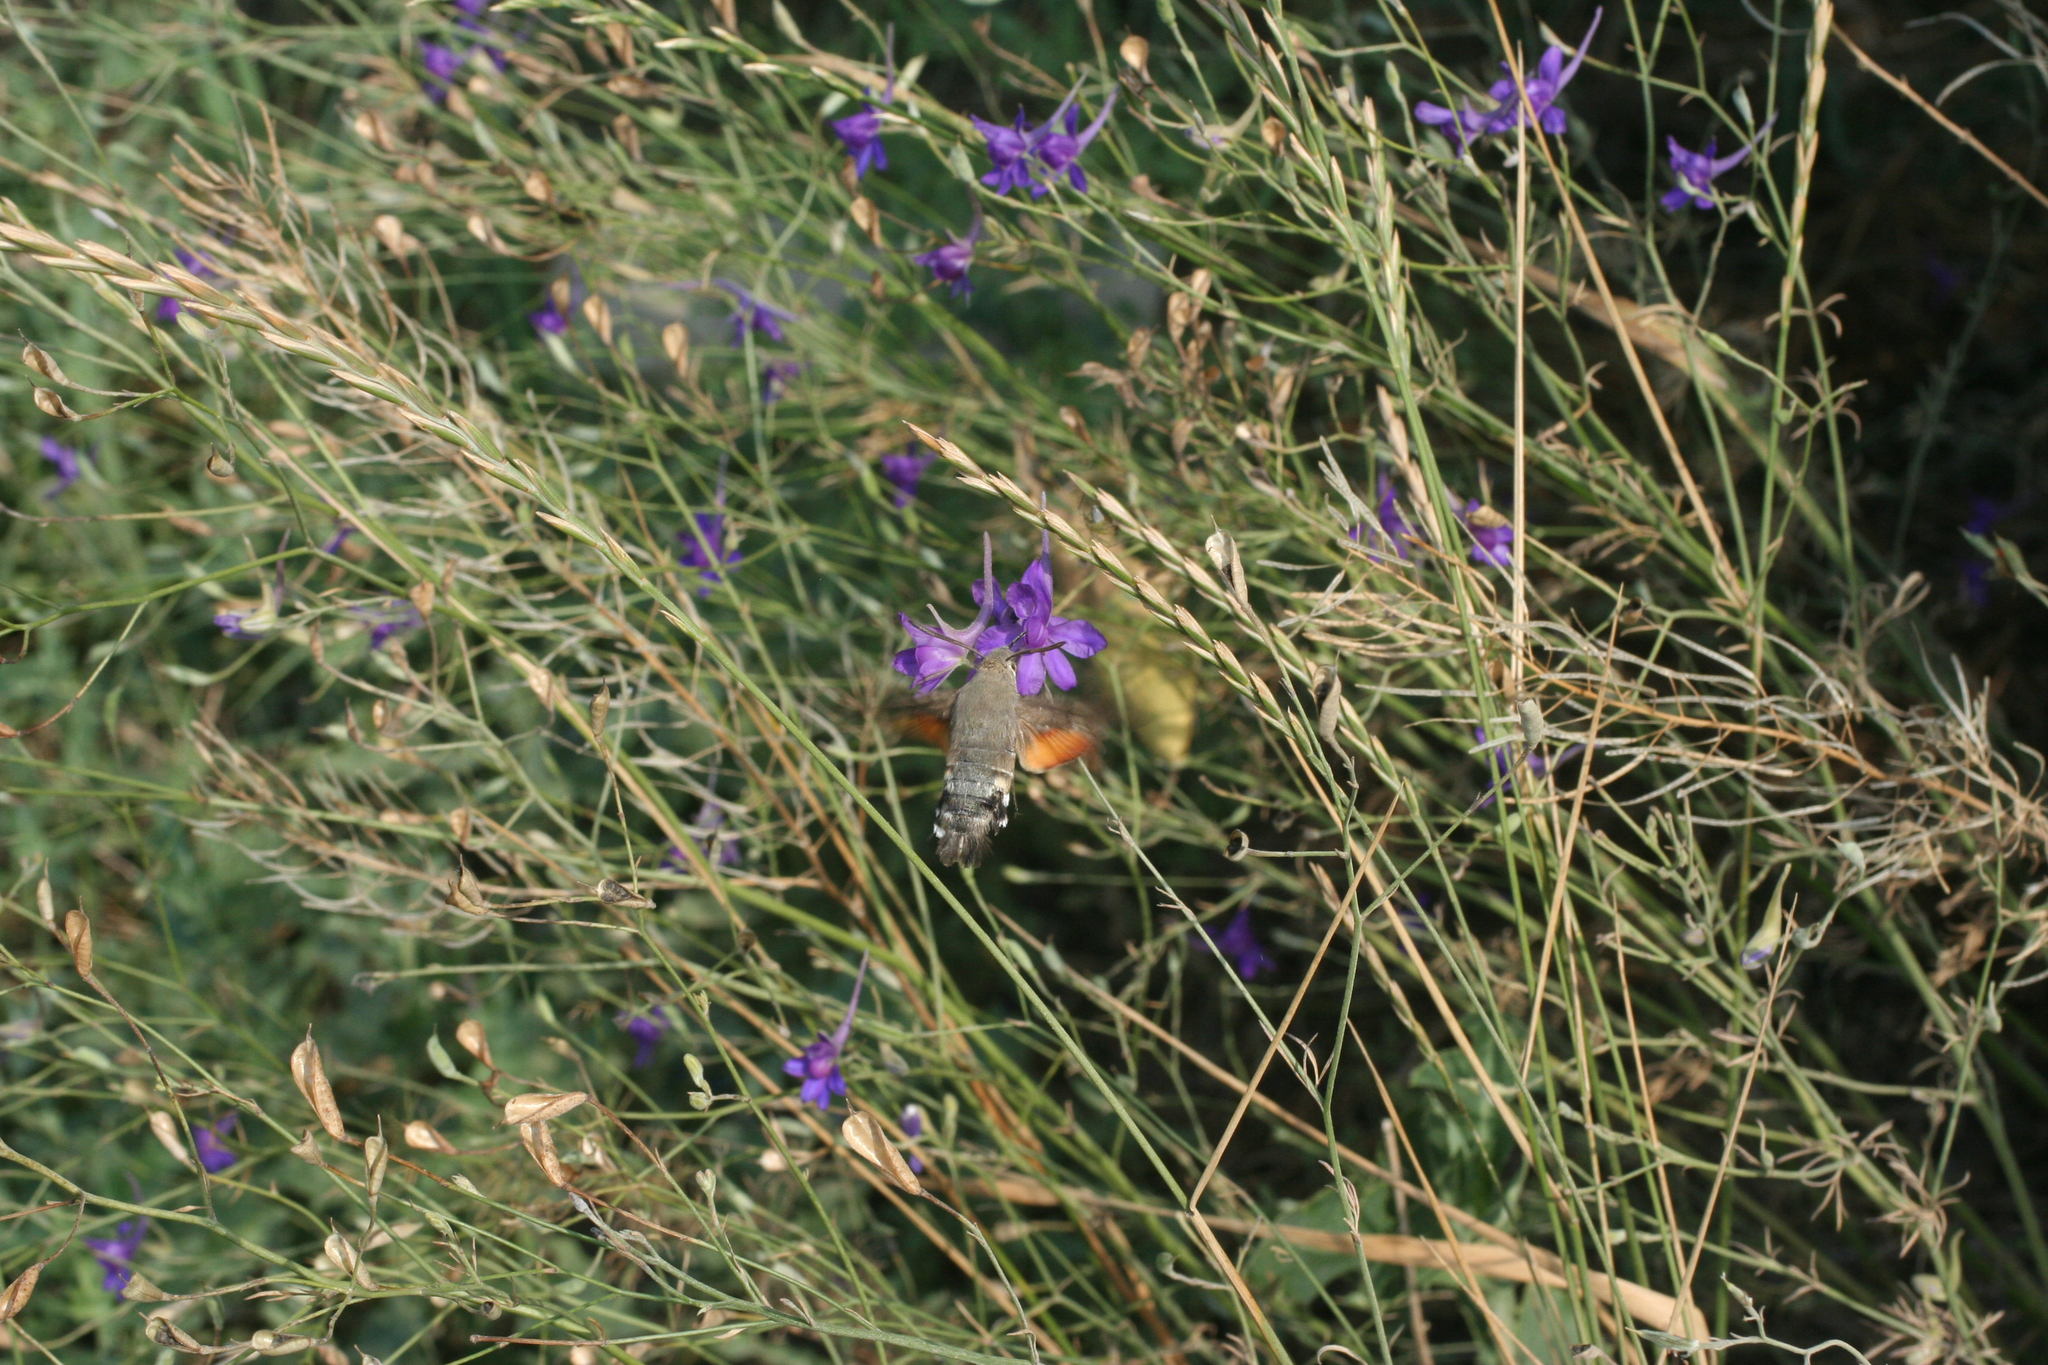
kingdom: Plantae
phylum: Tracheophyta
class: Magnoliopsida
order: Ranunculales
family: Ranunculaceae
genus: Delphinium
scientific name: Delphinium consolida
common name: Branching larkspur
